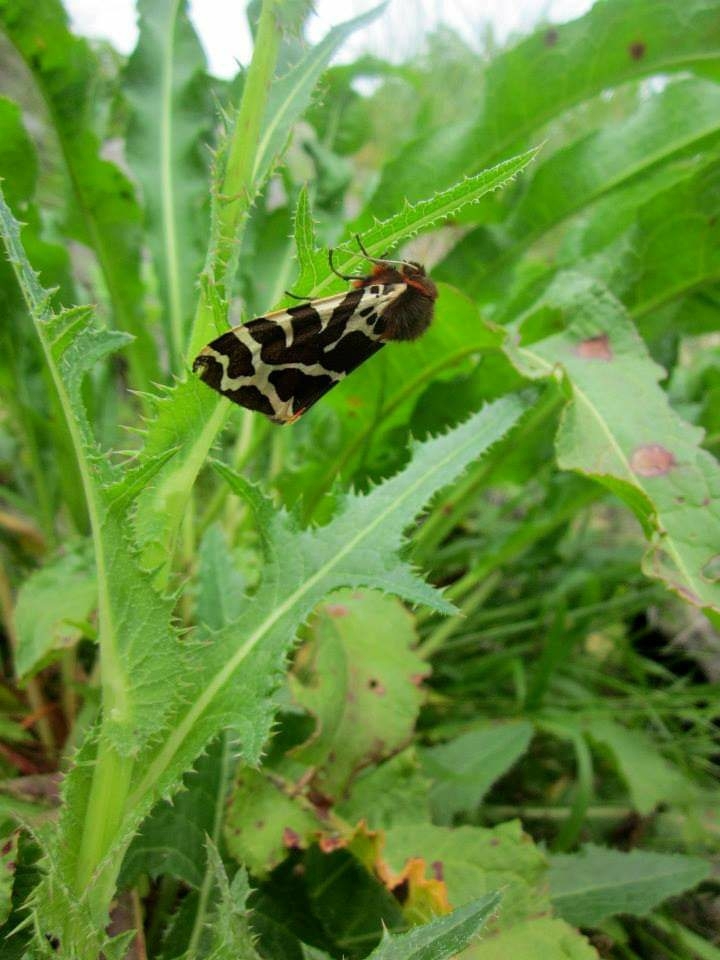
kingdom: Animalia
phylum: Arthropoda
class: Insecta
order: Lepidoptera
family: Erebidae
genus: Arctia
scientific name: Arctia caja
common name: Garden tiger
